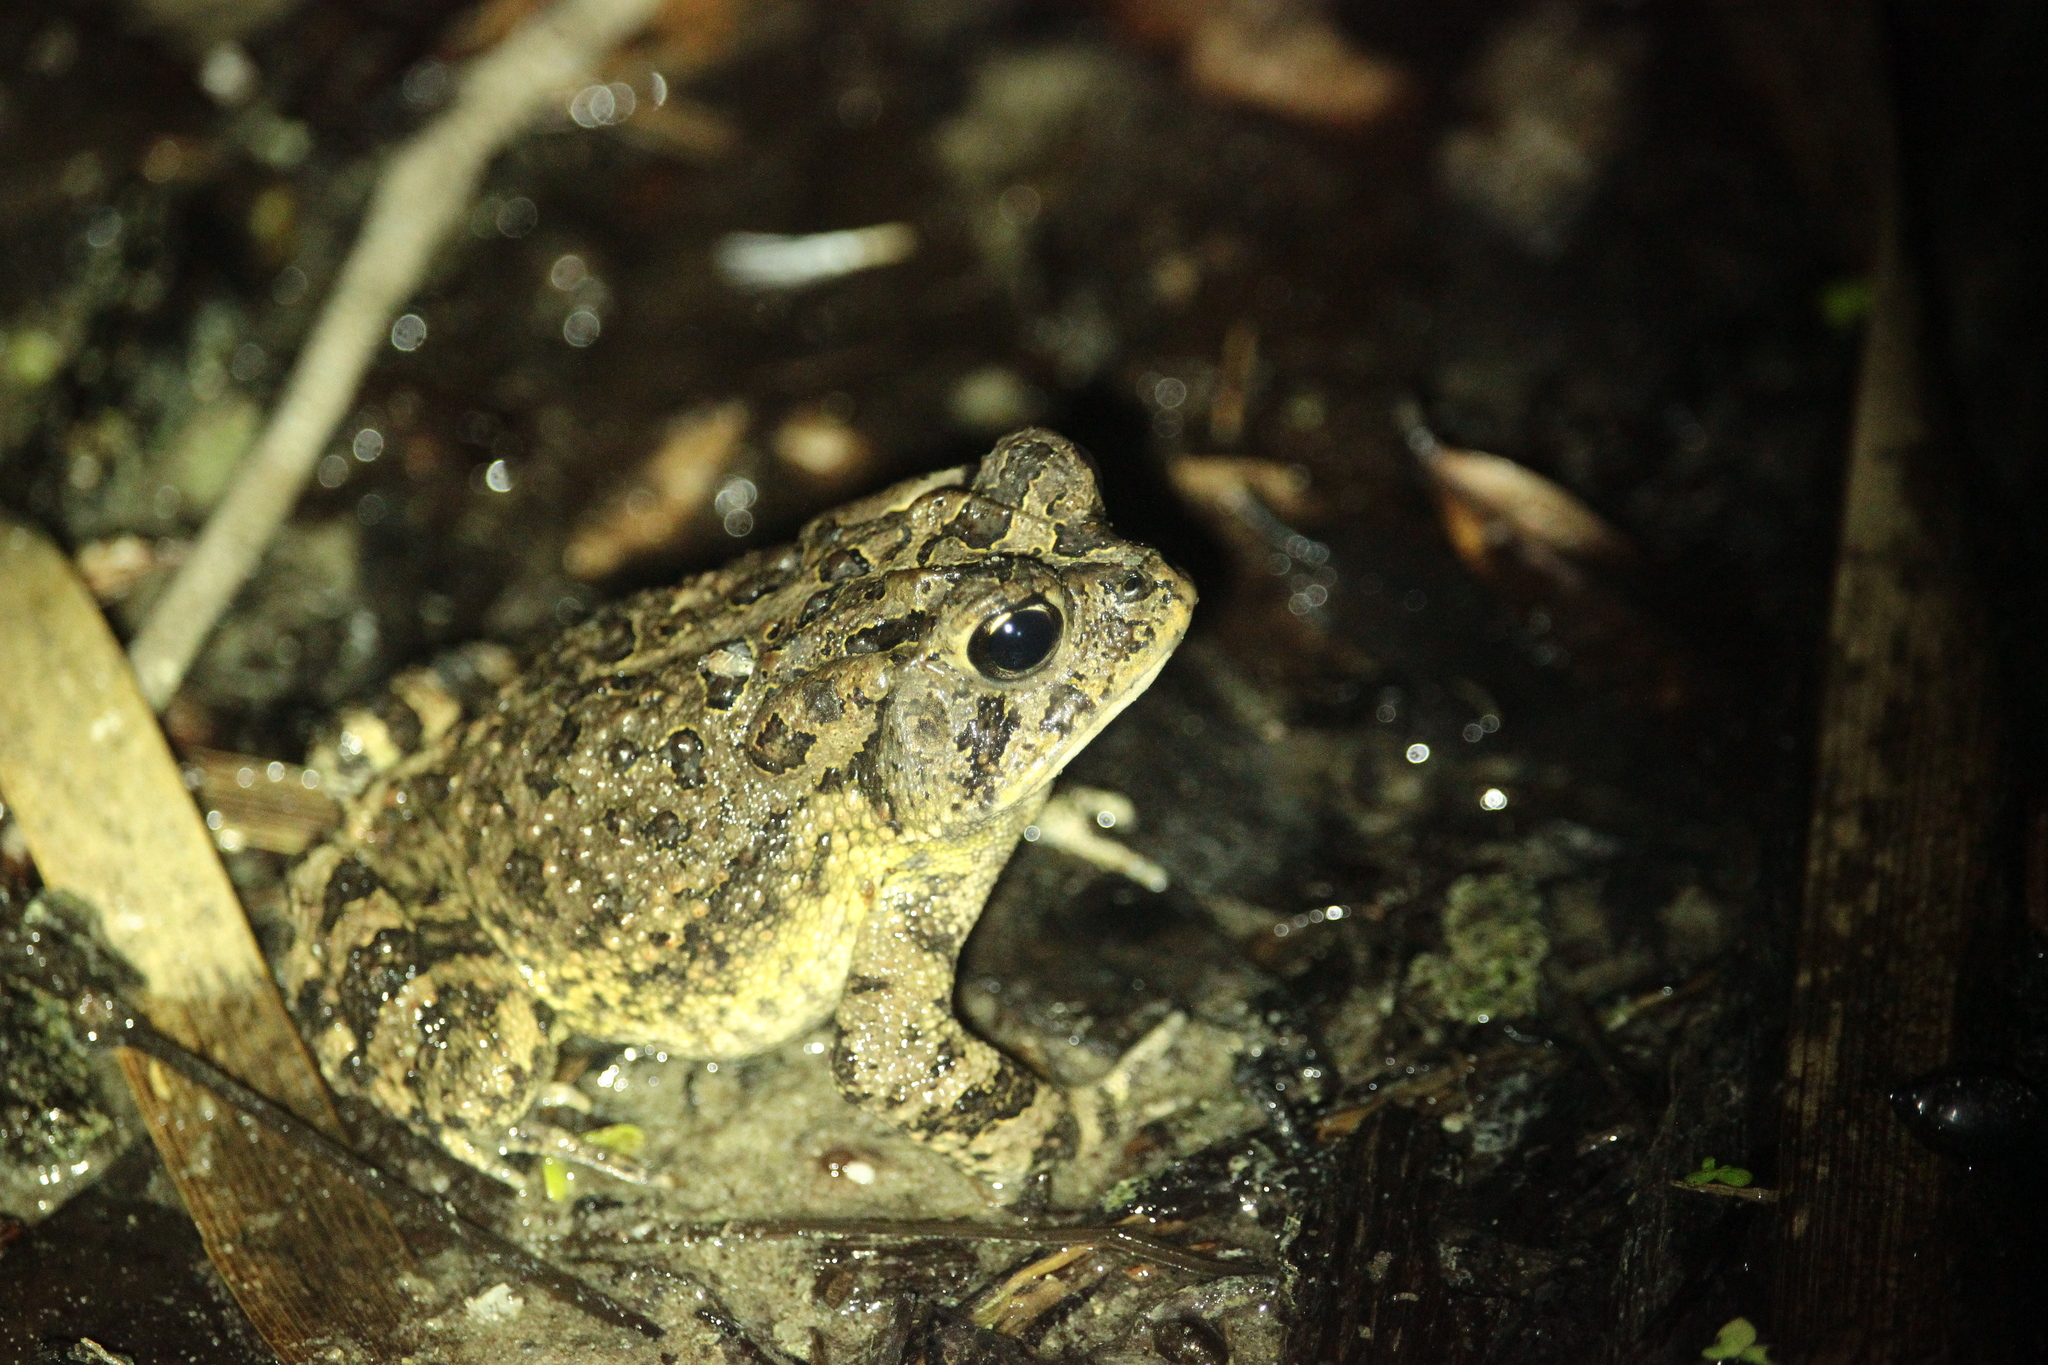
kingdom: Animalia
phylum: Chordata
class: Amphibia
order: Anura
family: Bufonidae
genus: Anaxyrus
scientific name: Anaxyrus terrestris
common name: Southern toad
